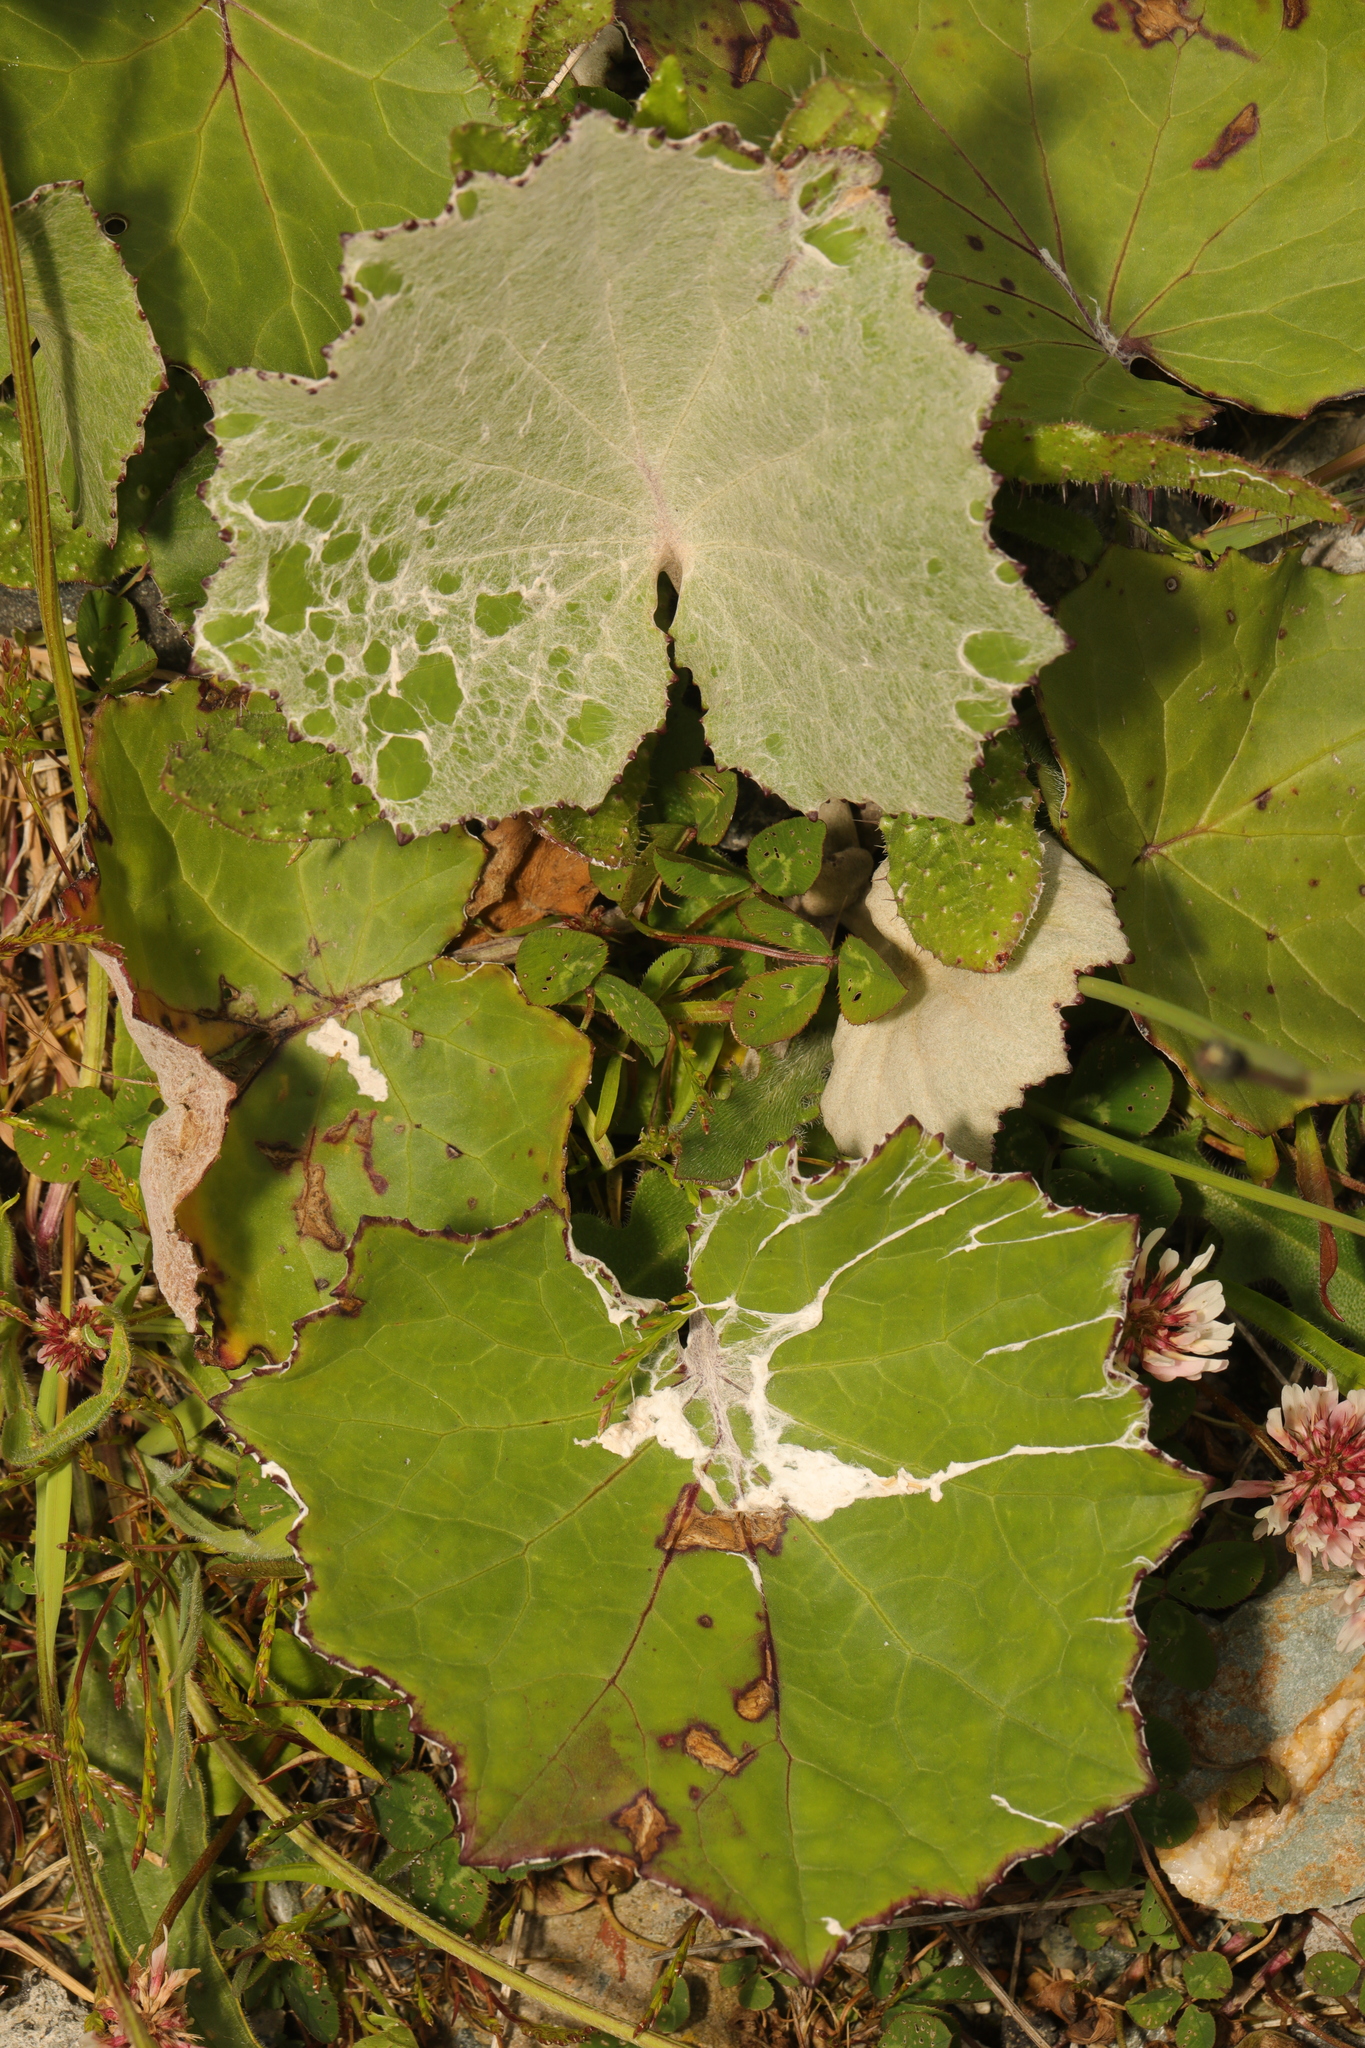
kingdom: Plantae
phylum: Tracheophyta
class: Magnoliopsida
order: Asterales
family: Asteraceae
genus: Tussilago
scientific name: Tussilago farfara
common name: Coltsfoot
